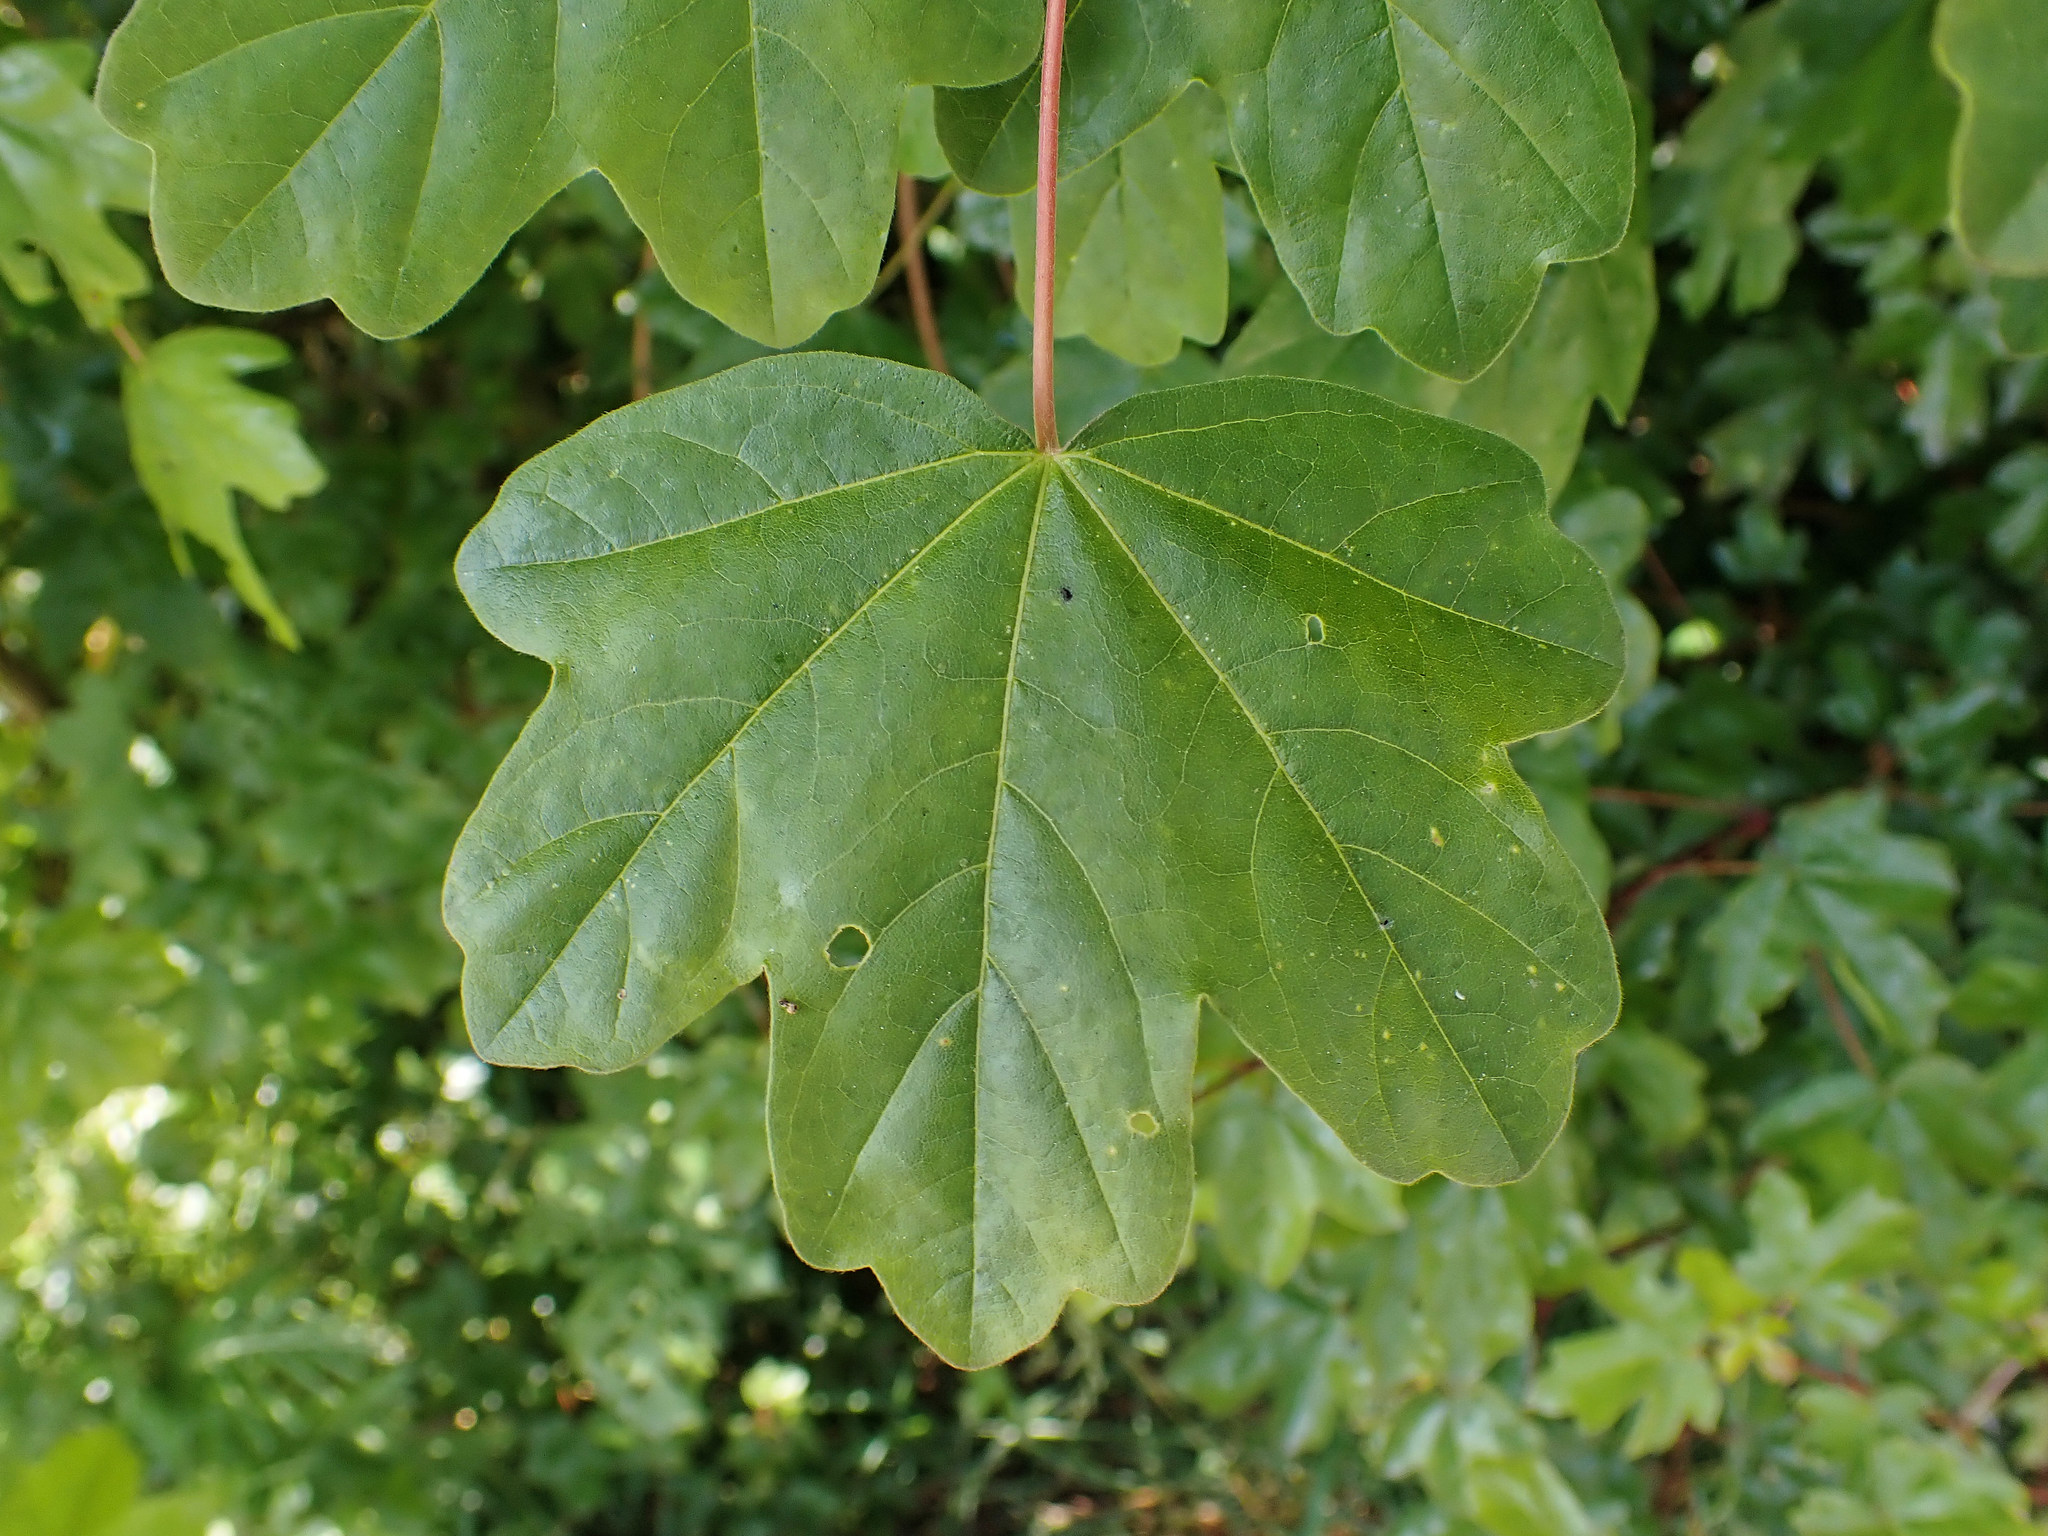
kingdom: Plantae
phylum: Tracheophyta
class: Magnoliopsida
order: Sapindales
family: Sapindaceae
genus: Acer
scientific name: Acer campestre
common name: Field maple
